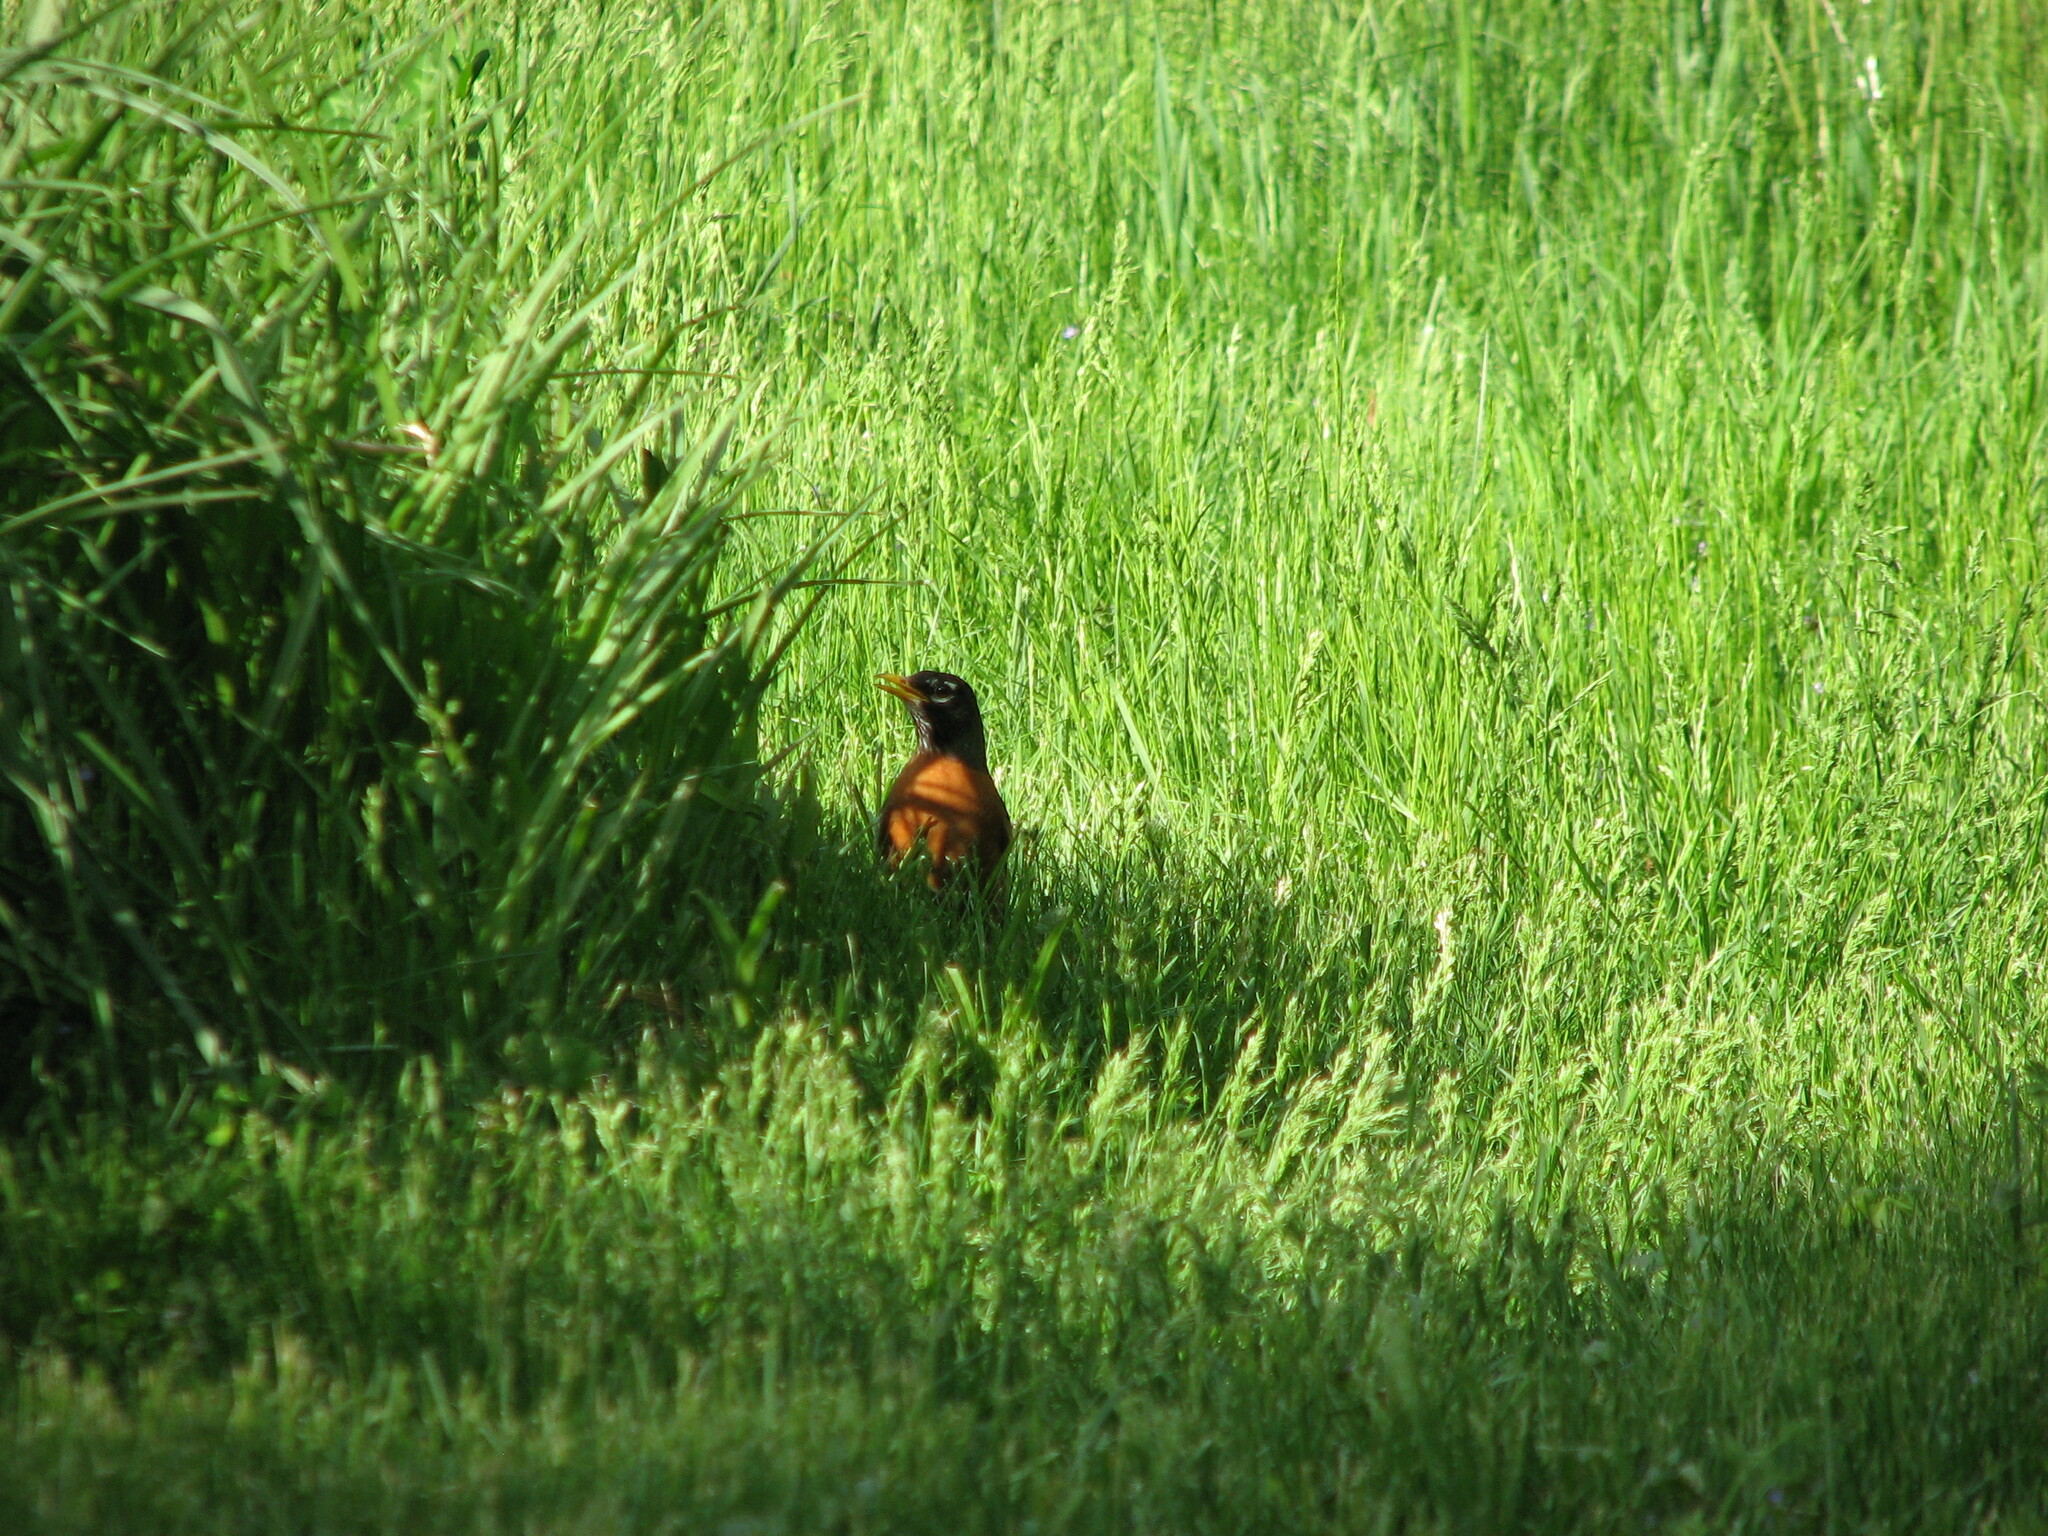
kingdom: Animalia
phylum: Chordata
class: Aves
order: Passeriformes
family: Turdidae
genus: Turdus
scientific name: Turdus migratorius
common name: American robin
